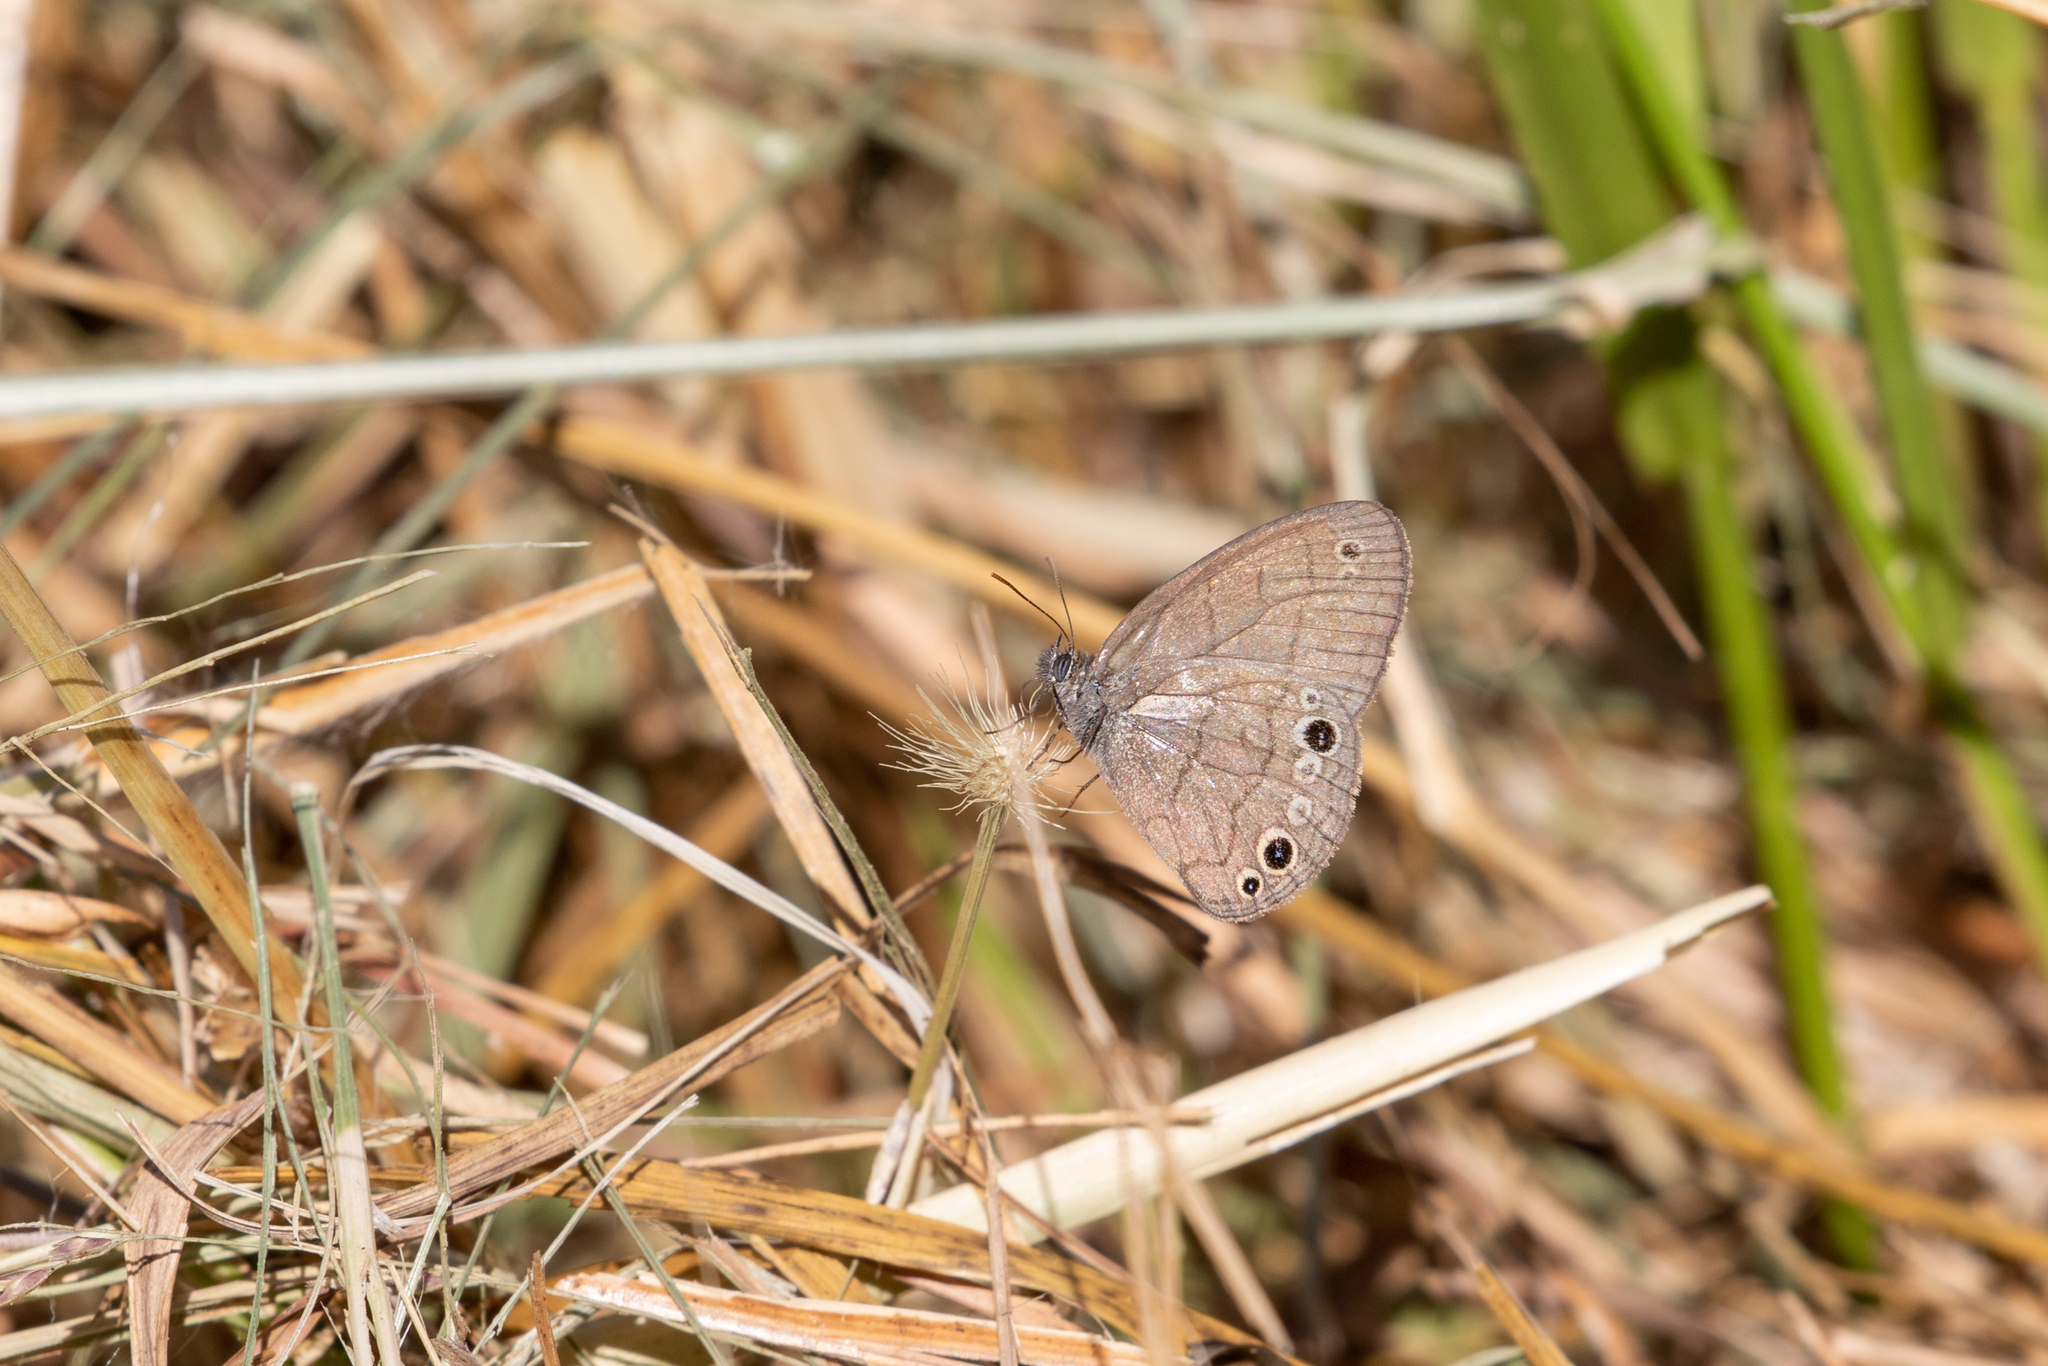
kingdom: Animalia
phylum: Arthropoda
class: Insecta
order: Lepidoptera
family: Nymphalidae
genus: Hermeuptychia
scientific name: Hermeuptychia hermes
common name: Hermes satyr
